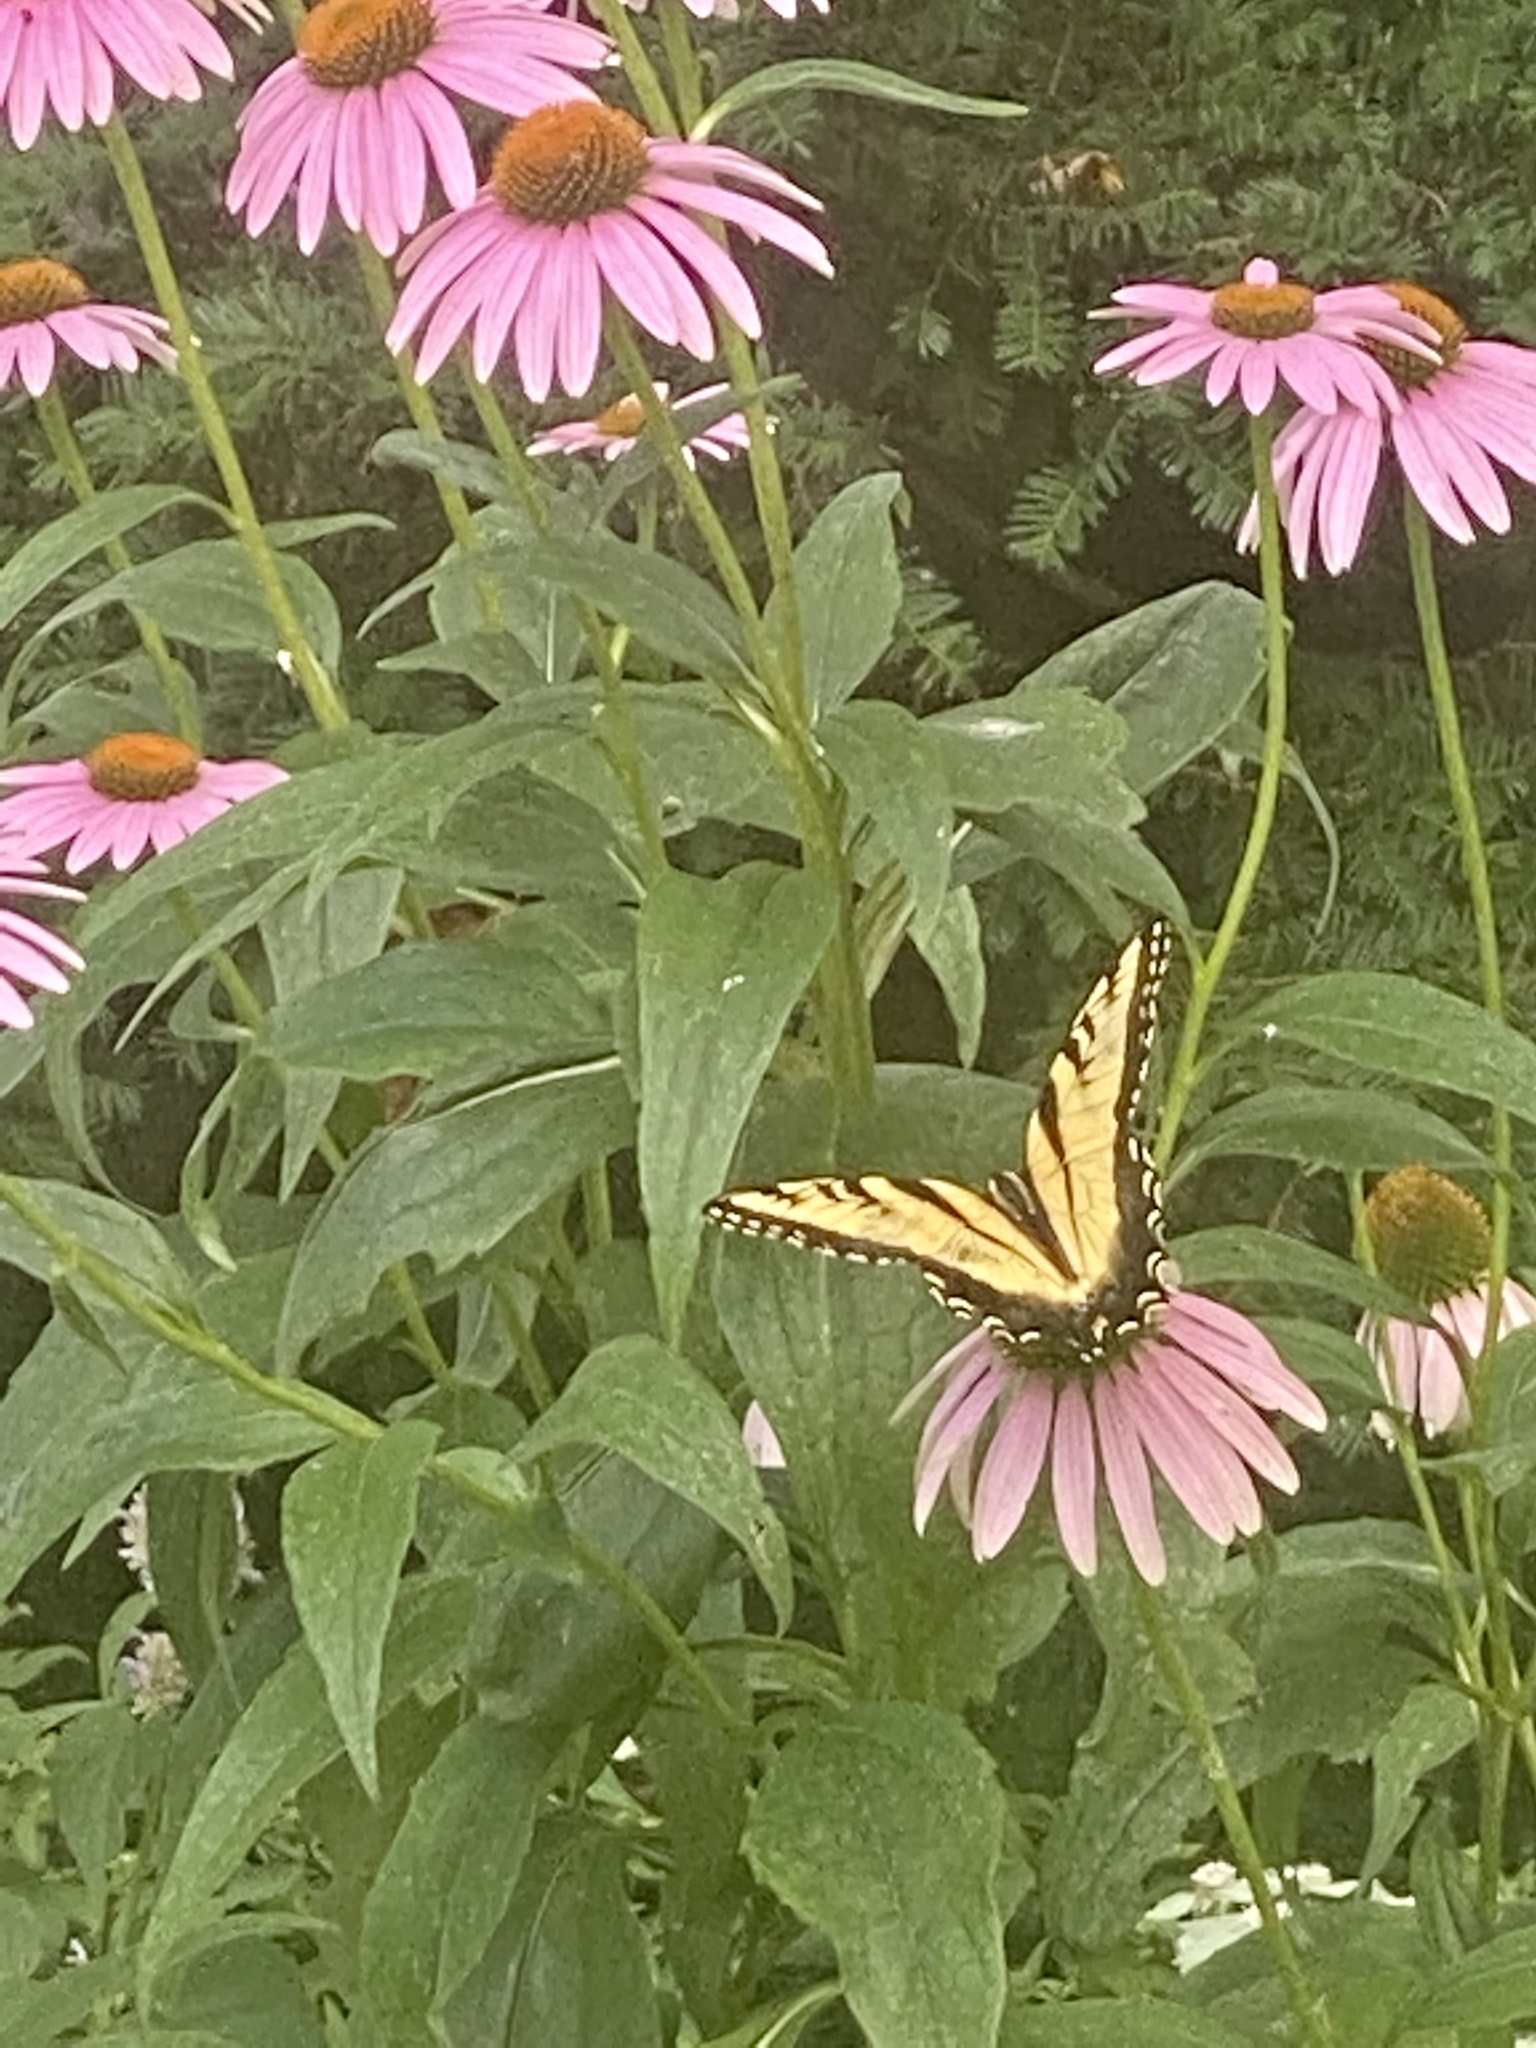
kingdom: Animalia
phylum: Arthropoda
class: Insecta
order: Lepidoptera
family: Papilionidae
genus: Papilio
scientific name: Papilio glaucus
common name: Tiger swallowtail
